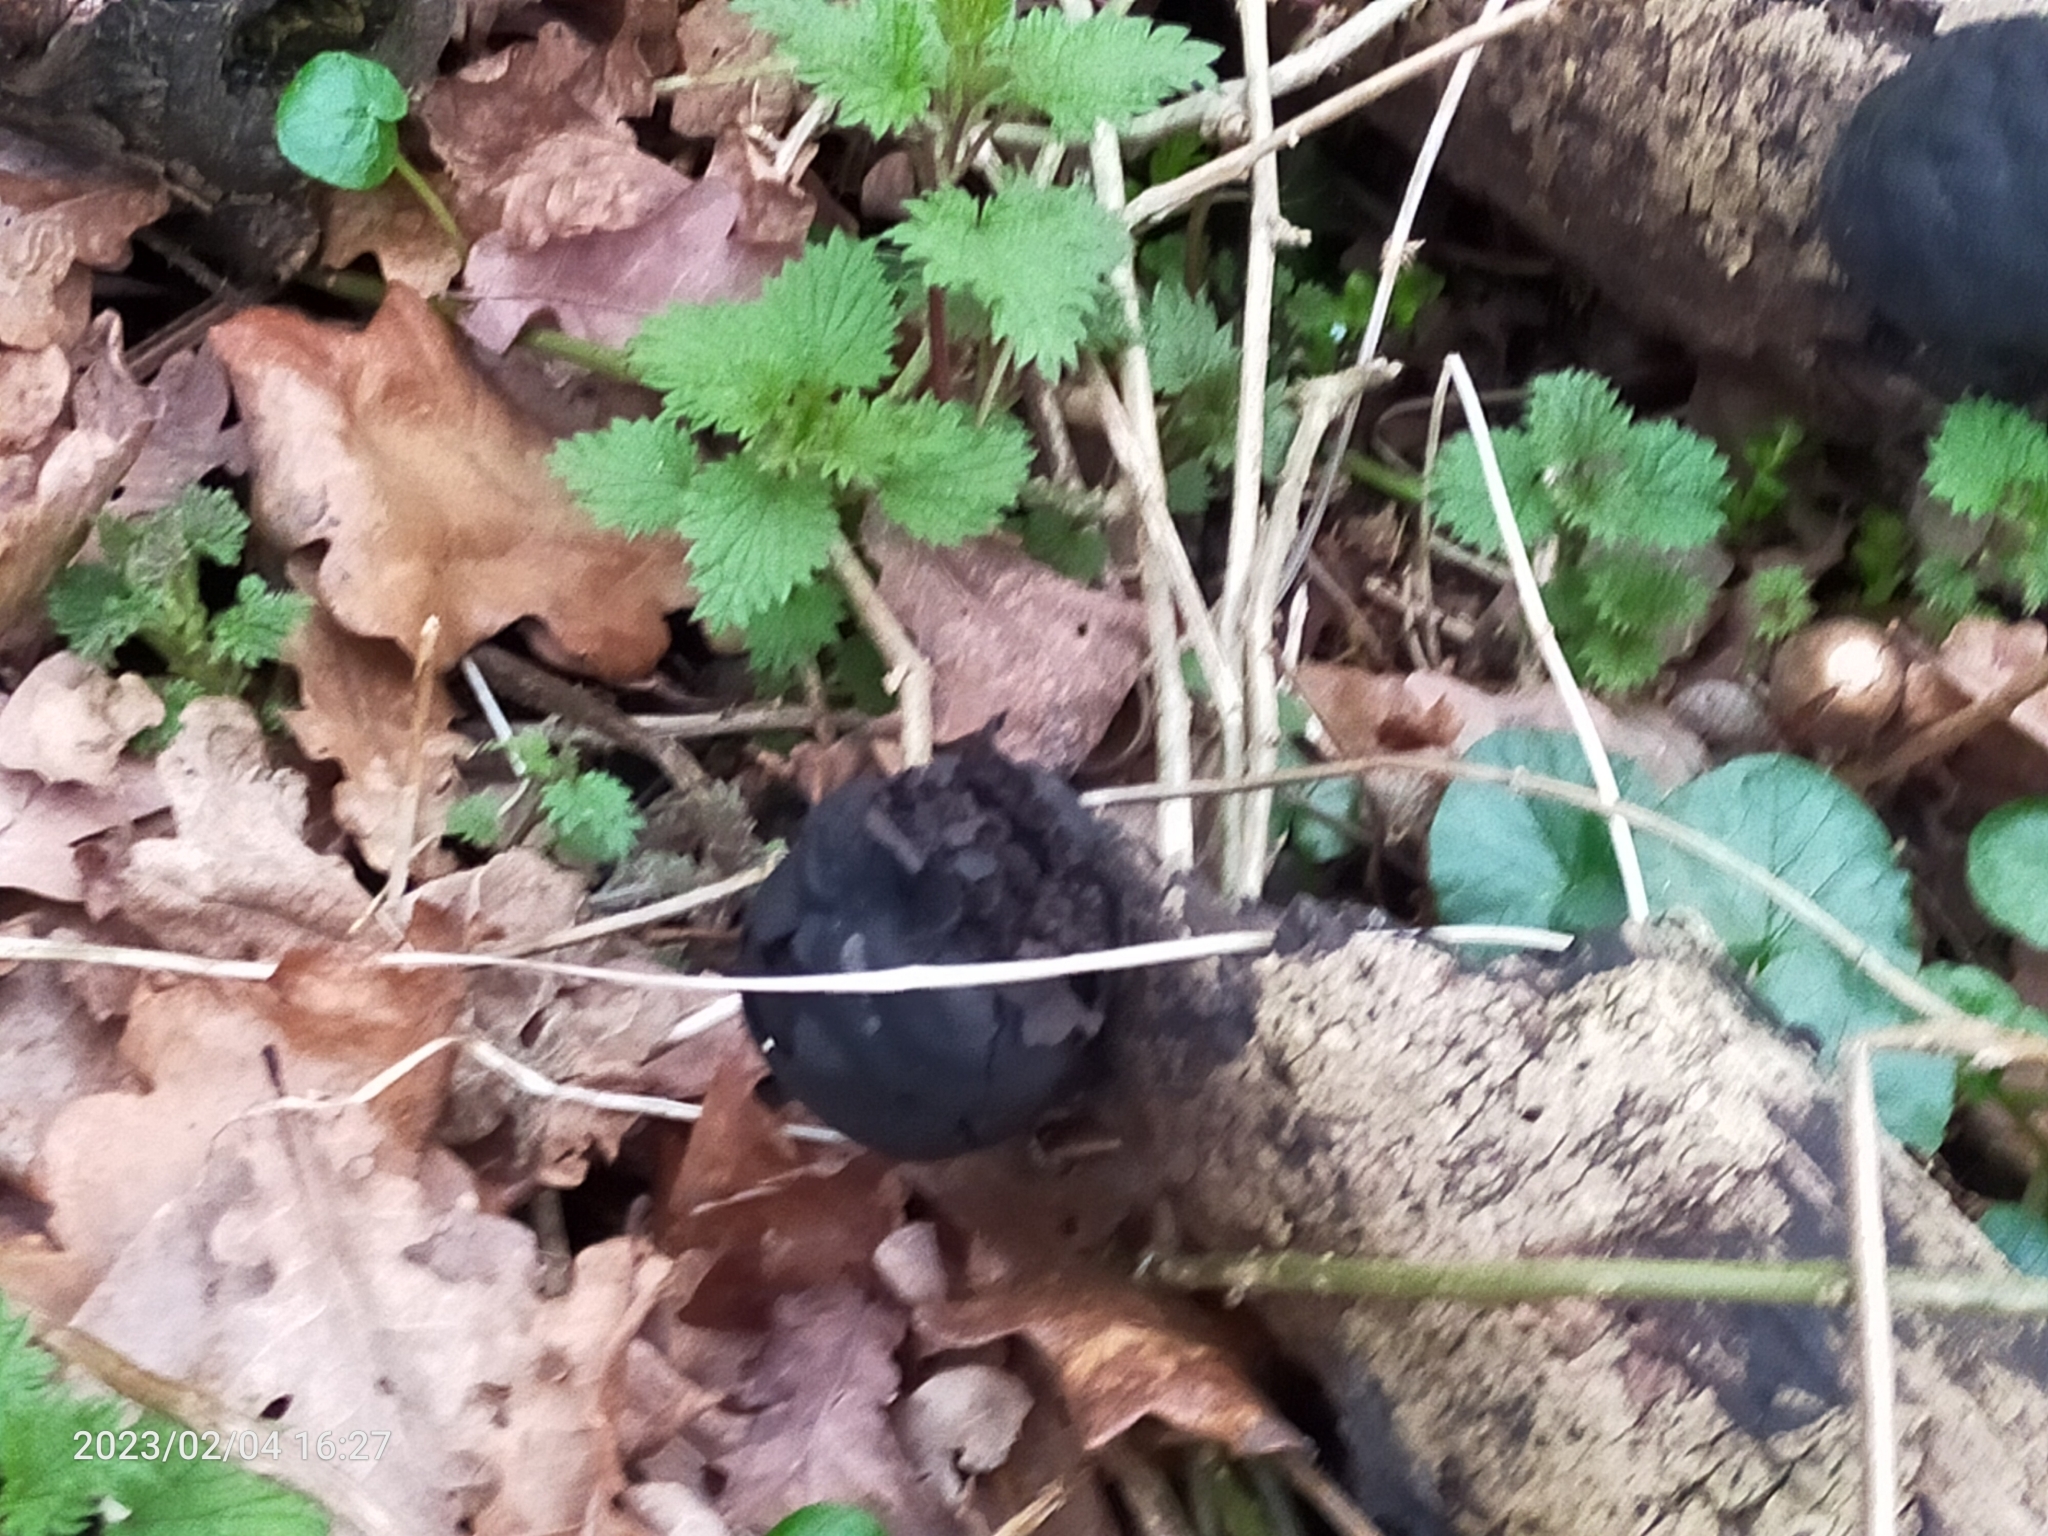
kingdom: Fungi
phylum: Ascomycota
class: Sordariomycetes
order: Xylariales
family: Hypoxylaceae
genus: Daldinia
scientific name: Daldinia concentrica
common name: Cramp balls
